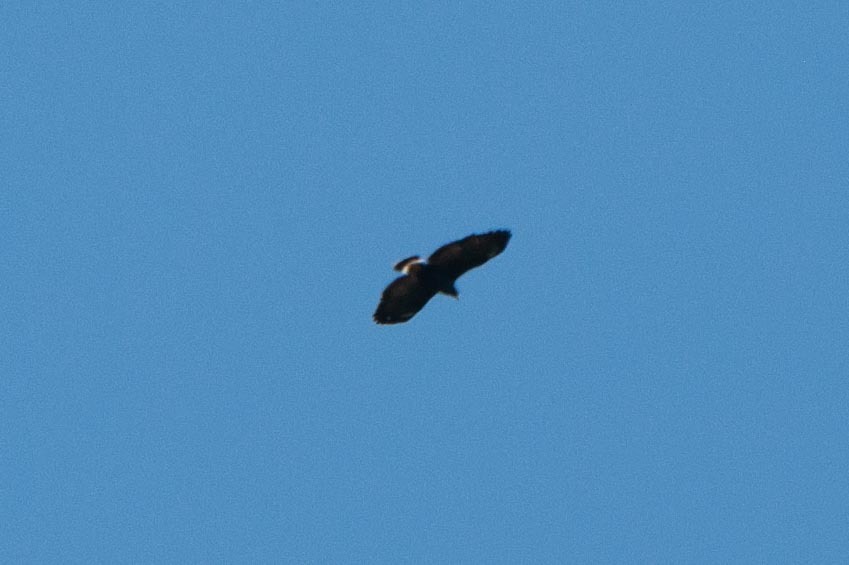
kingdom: Animalia
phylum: Chordata
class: Aves
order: Accipitriformes
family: Accipitridae
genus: Buteogallus
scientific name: Buteogallus anthracinus
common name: Common black hawk
